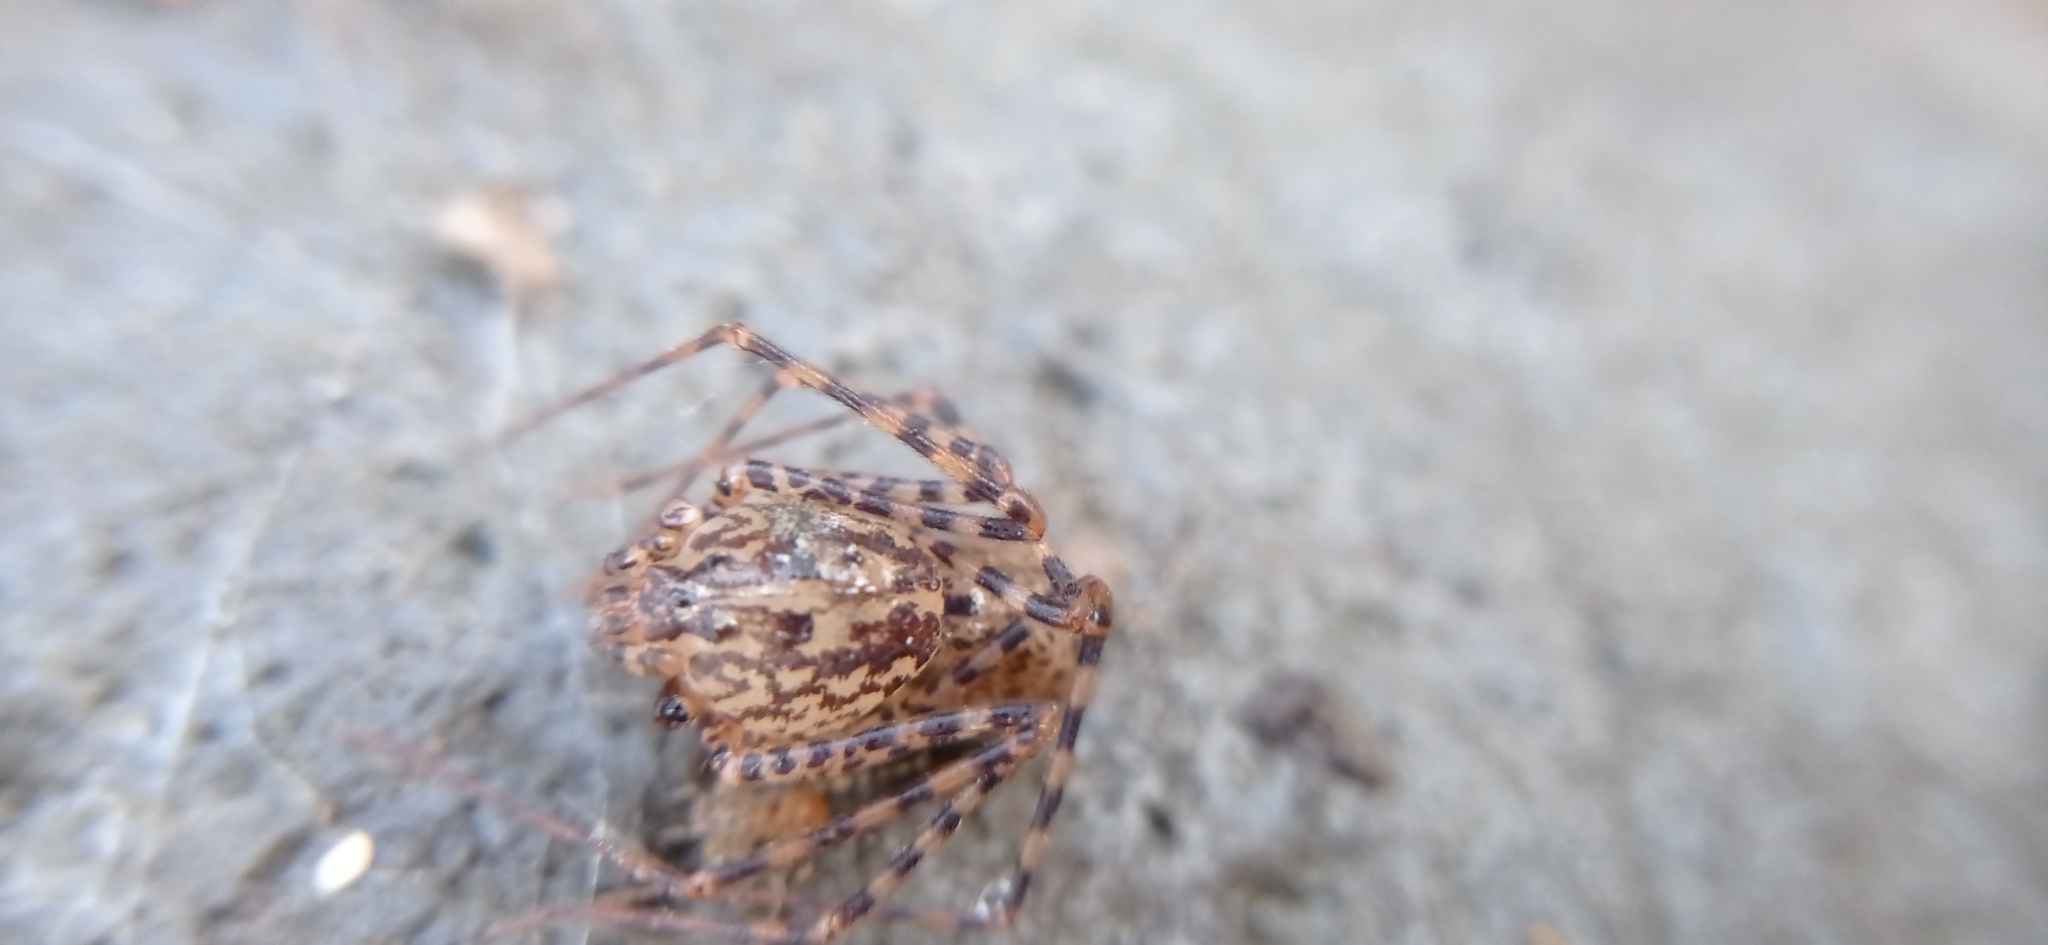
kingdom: Animalia
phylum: Arthropoda
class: Arachnida
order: Araneae
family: Scytodidae
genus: Scytodes
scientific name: Scytodes globula
